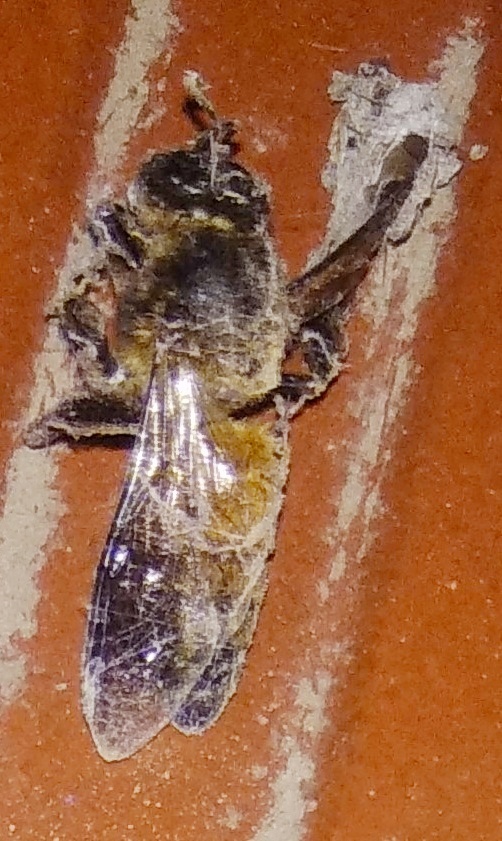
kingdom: Animalia
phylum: Arthropoda
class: Insecta
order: Hymenoptera
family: Apidae
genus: Apis
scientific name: Apis dorsata
